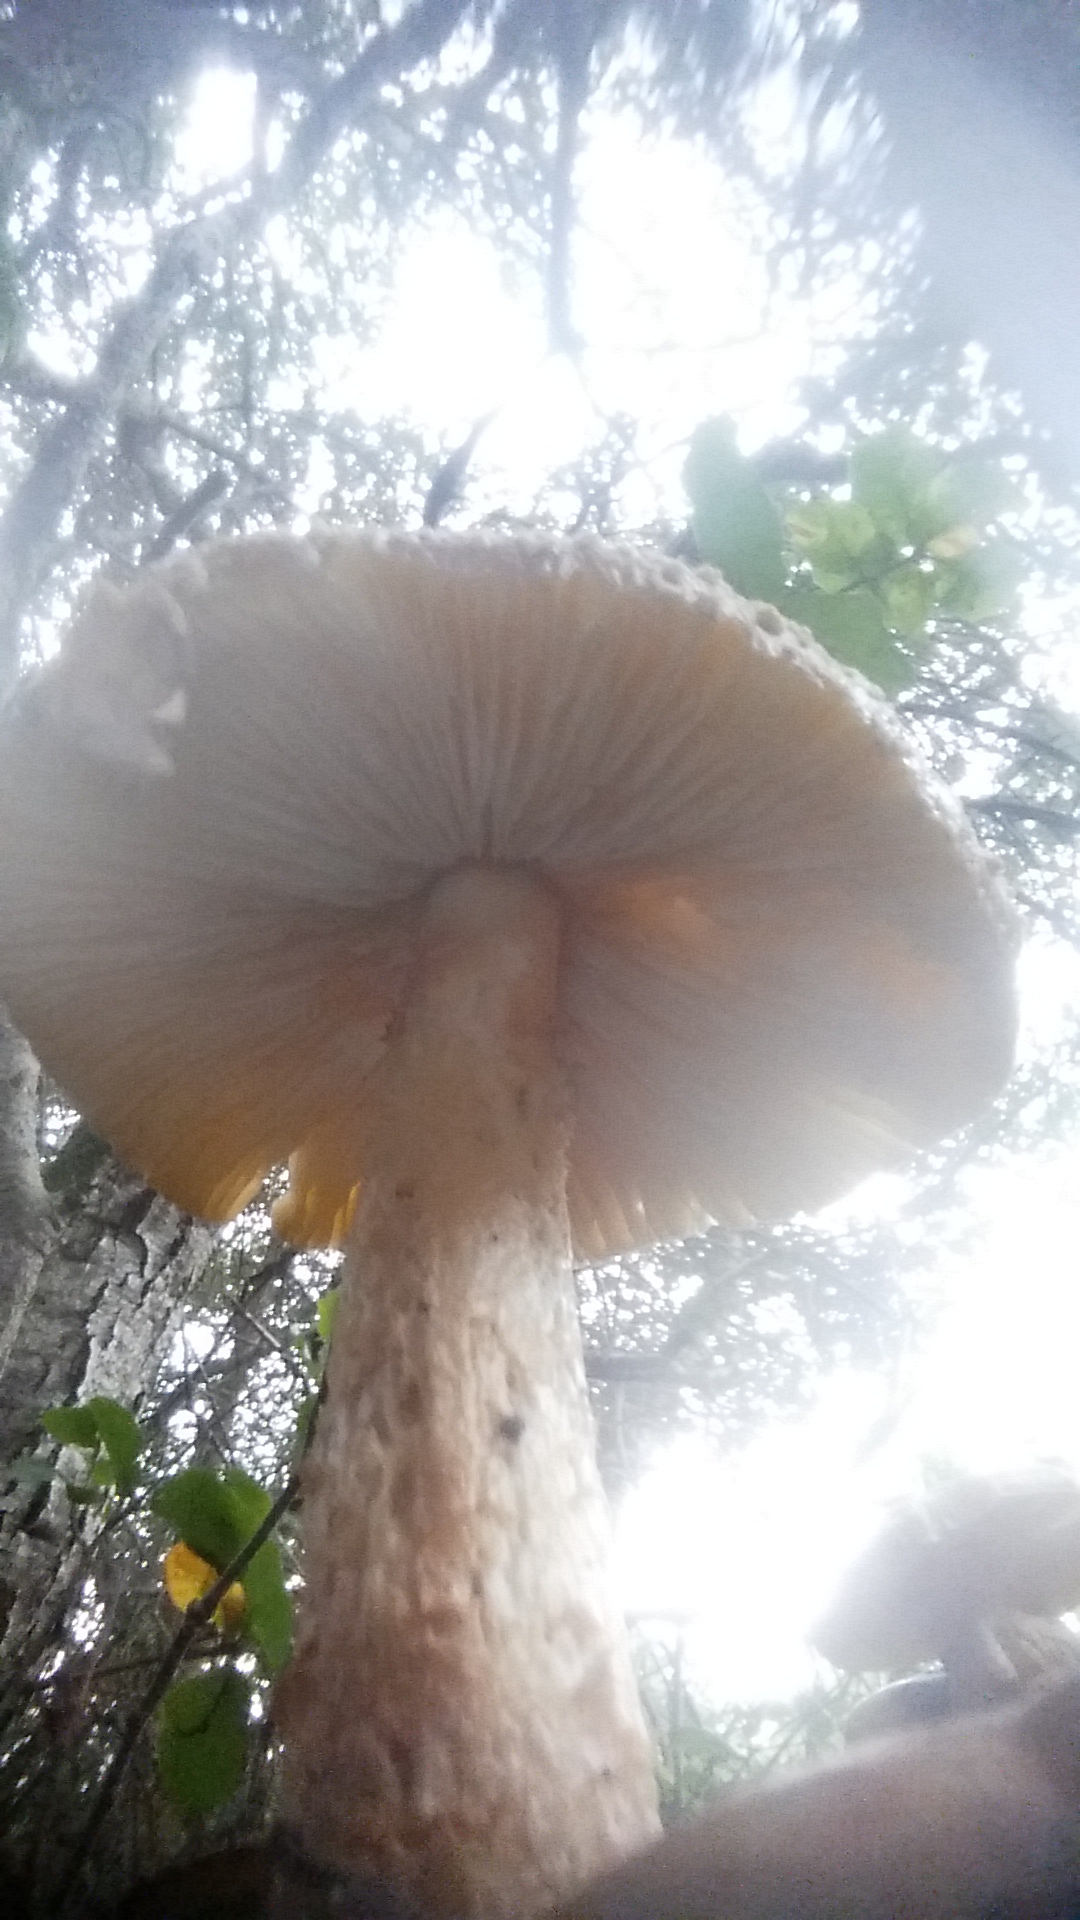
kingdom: Fungi
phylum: Basidiomycota
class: Agaricomycetes
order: Agaricales
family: Amanitaceae
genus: Amanita
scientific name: Amanita augusta
